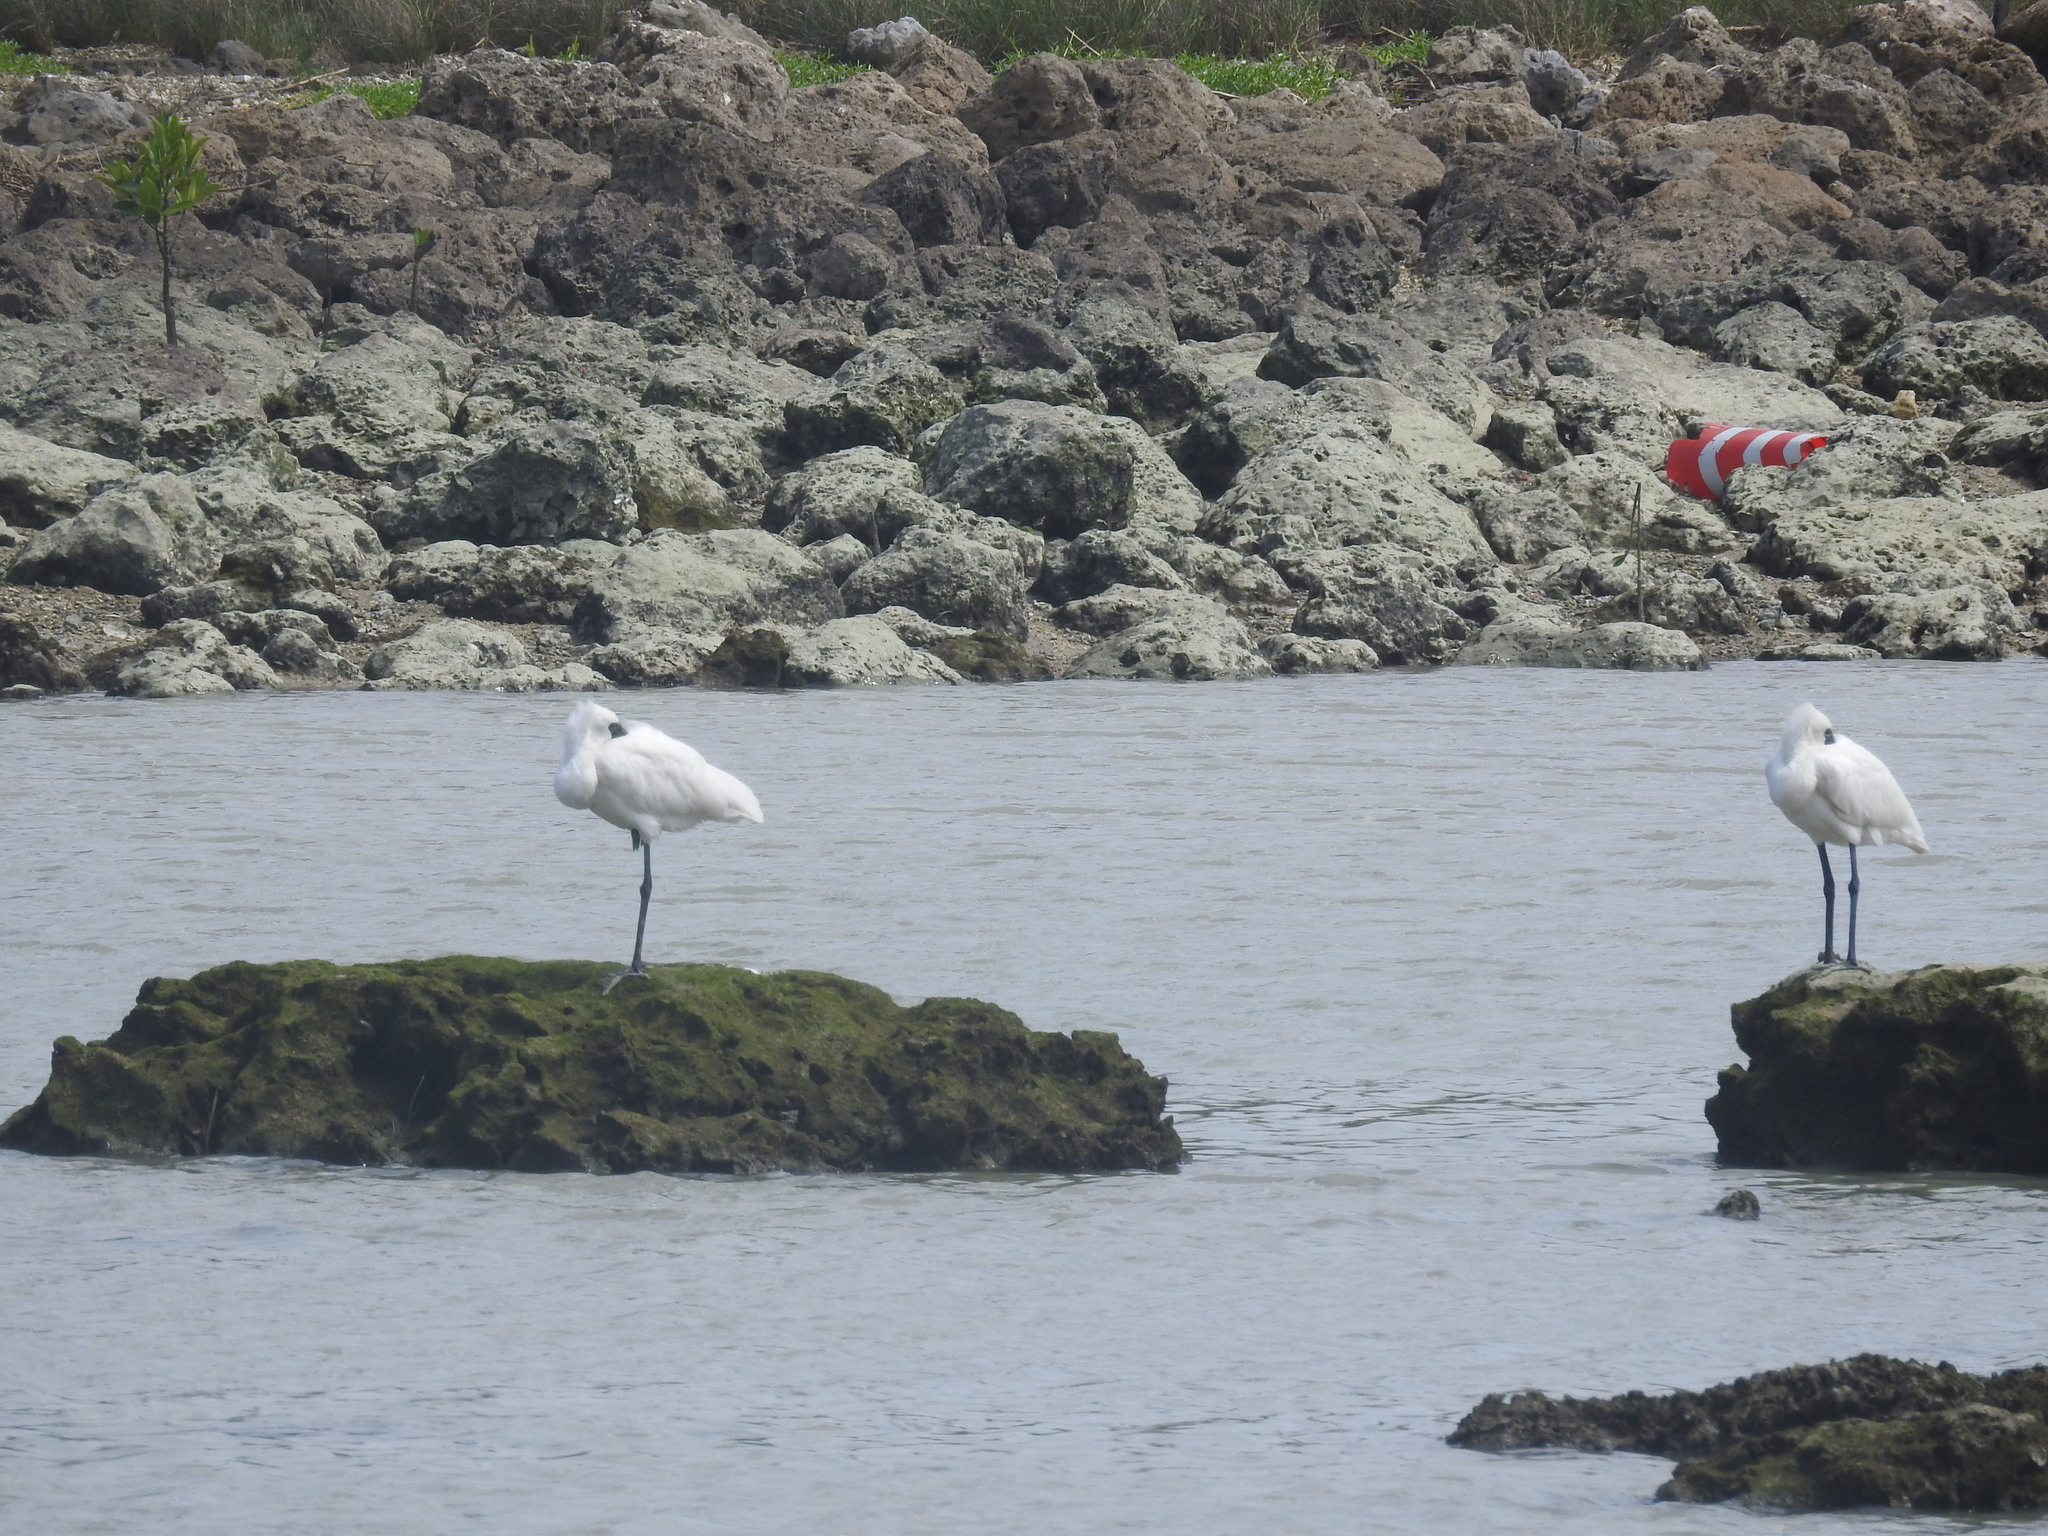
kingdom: Animalia
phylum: Chordata
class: Aves
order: Pelecaniformes
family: Threskiornithidae
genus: Platalea
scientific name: Platalea minor
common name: Black-faced spoonbill
